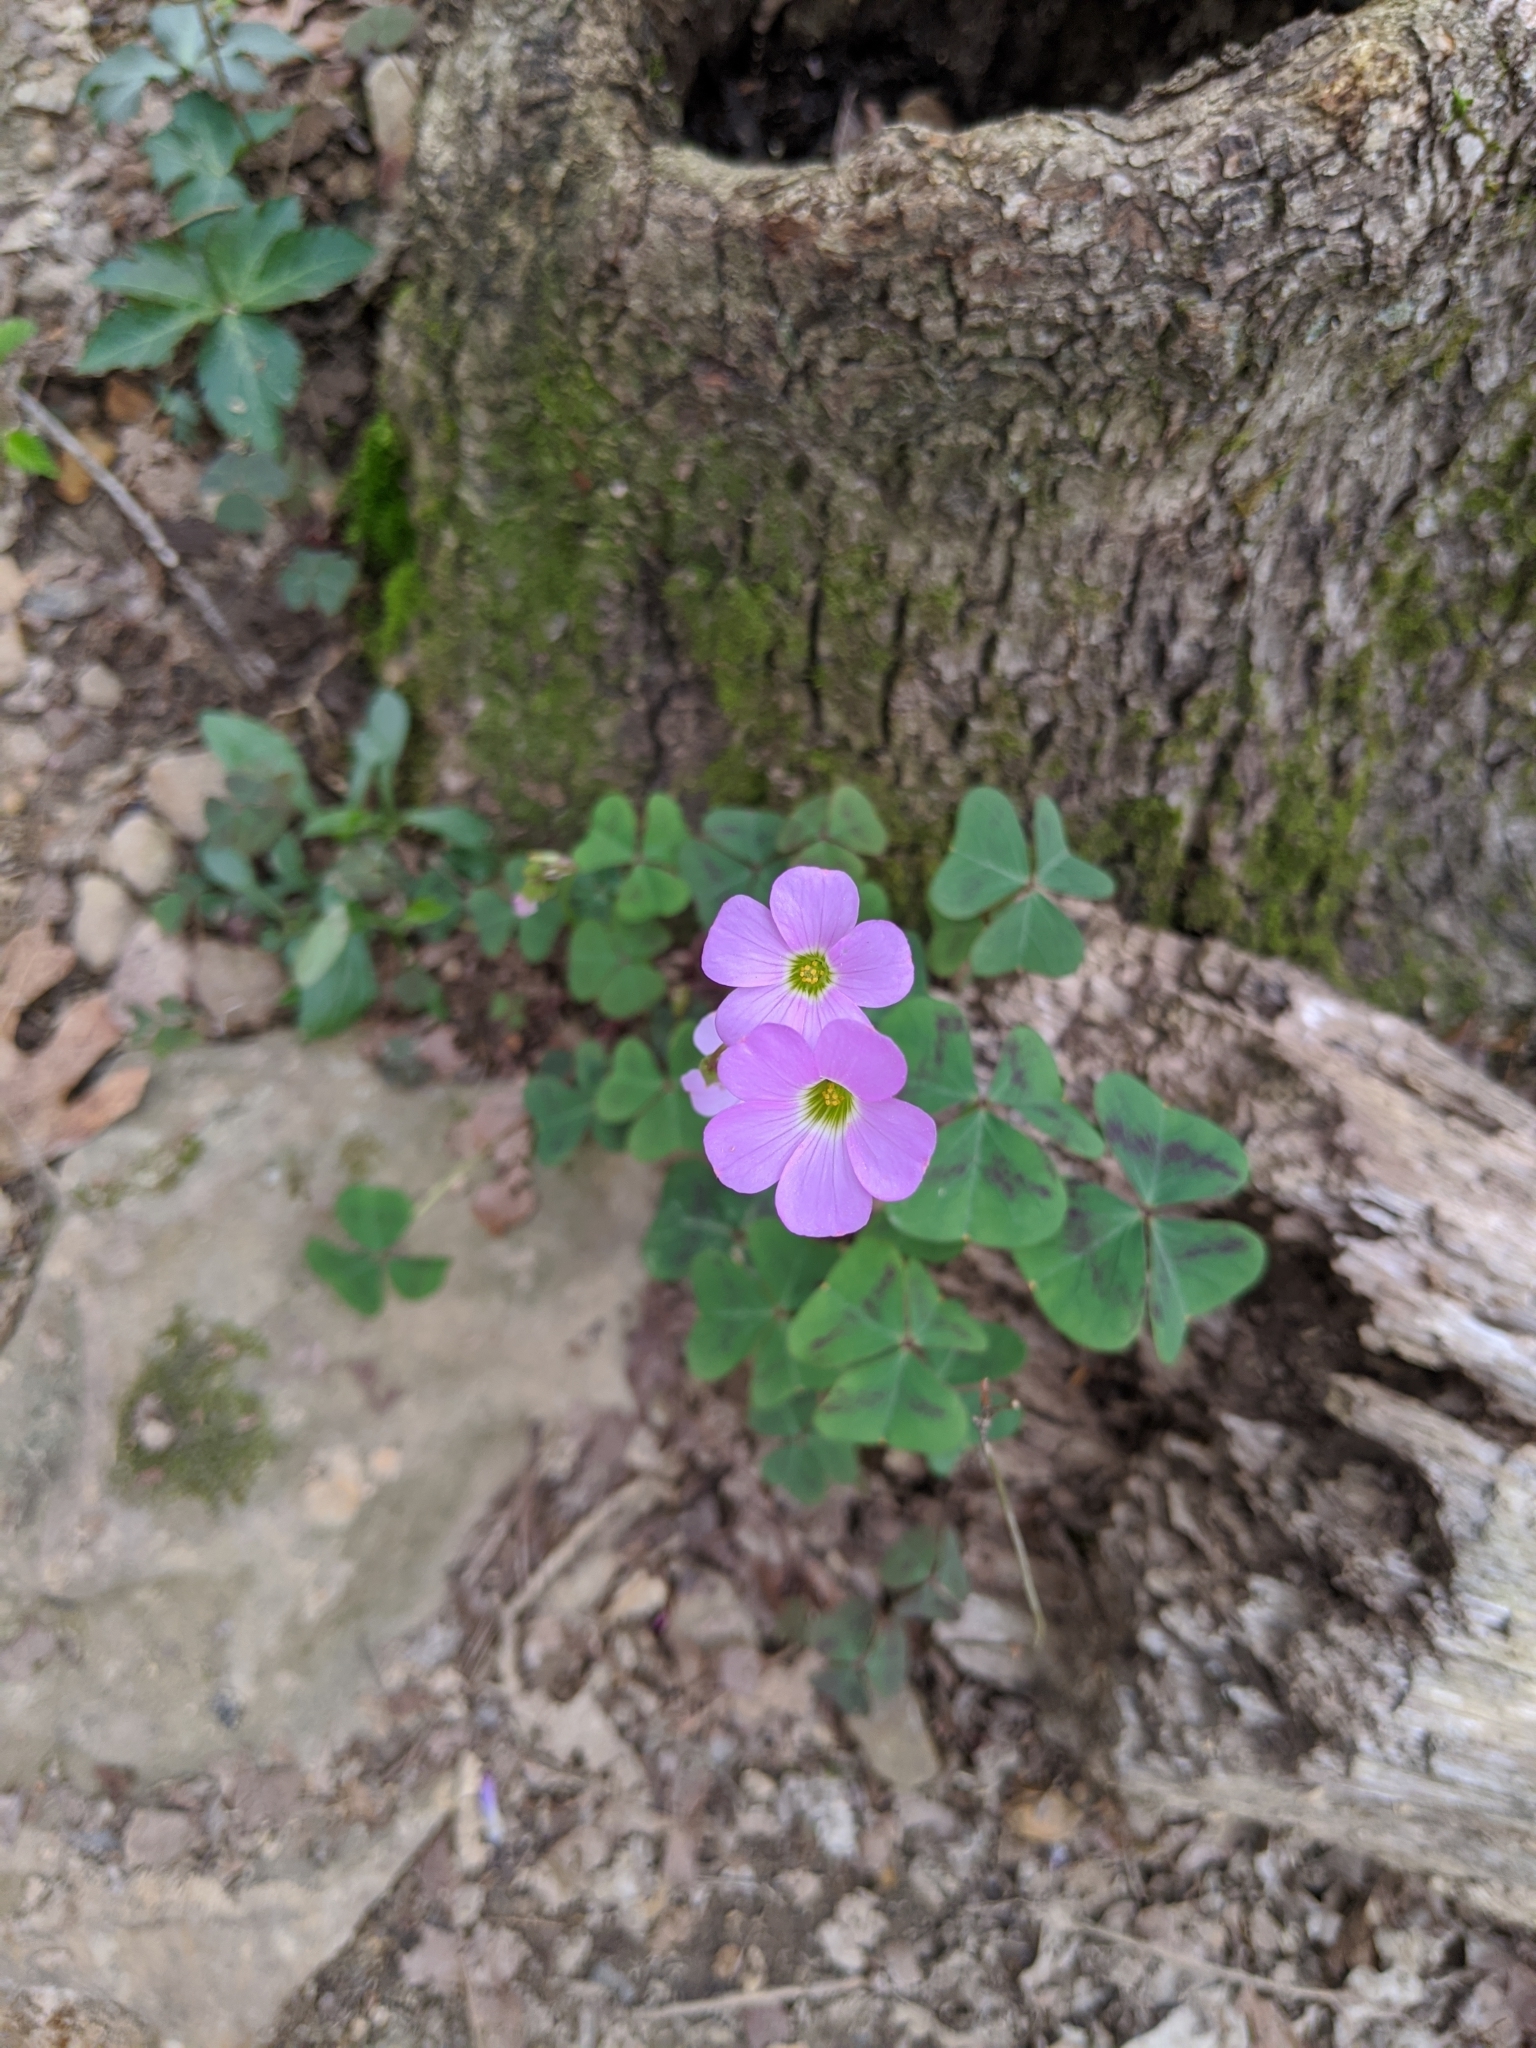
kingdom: Plantae
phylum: Tracheophyta
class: Magnoliopsida
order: Oxalidales
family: Oxalidaceae
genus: Oxalis
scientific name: Oxalis violacea
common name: Violet wood-sorrel
